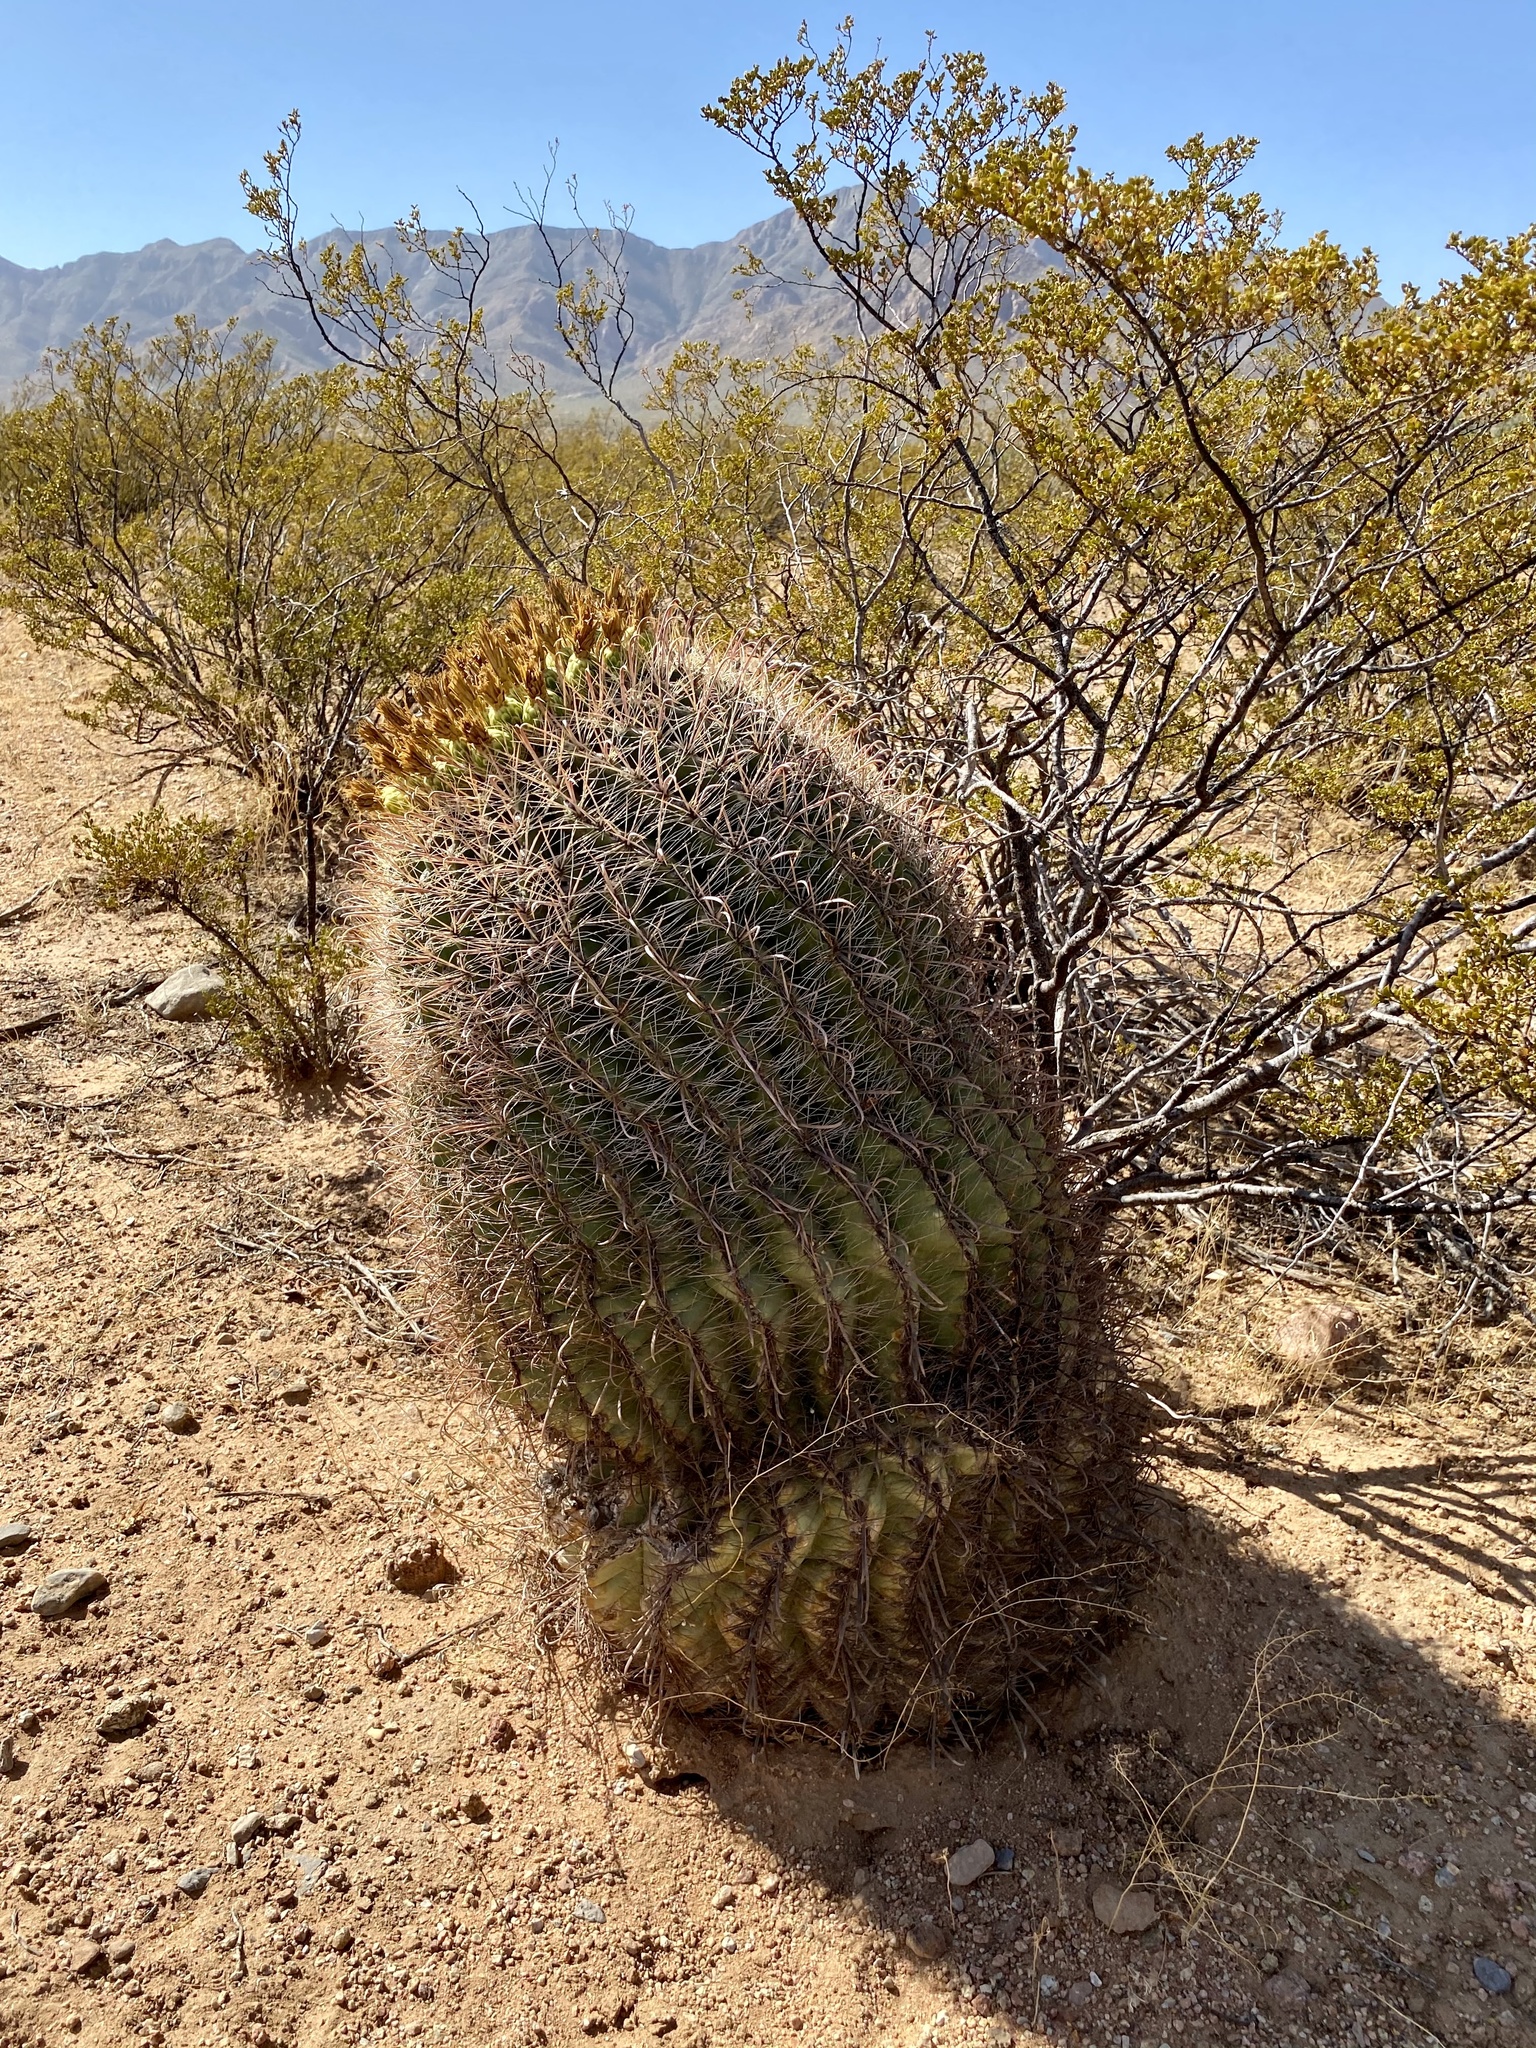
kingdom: Plantae
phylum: Tracheophyta
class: Magnoliopsida
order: Caryophyllales
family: Cactaceae
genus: Ferocactus
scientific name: Ferocactus wislizeni
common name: Candy barrel cactus
